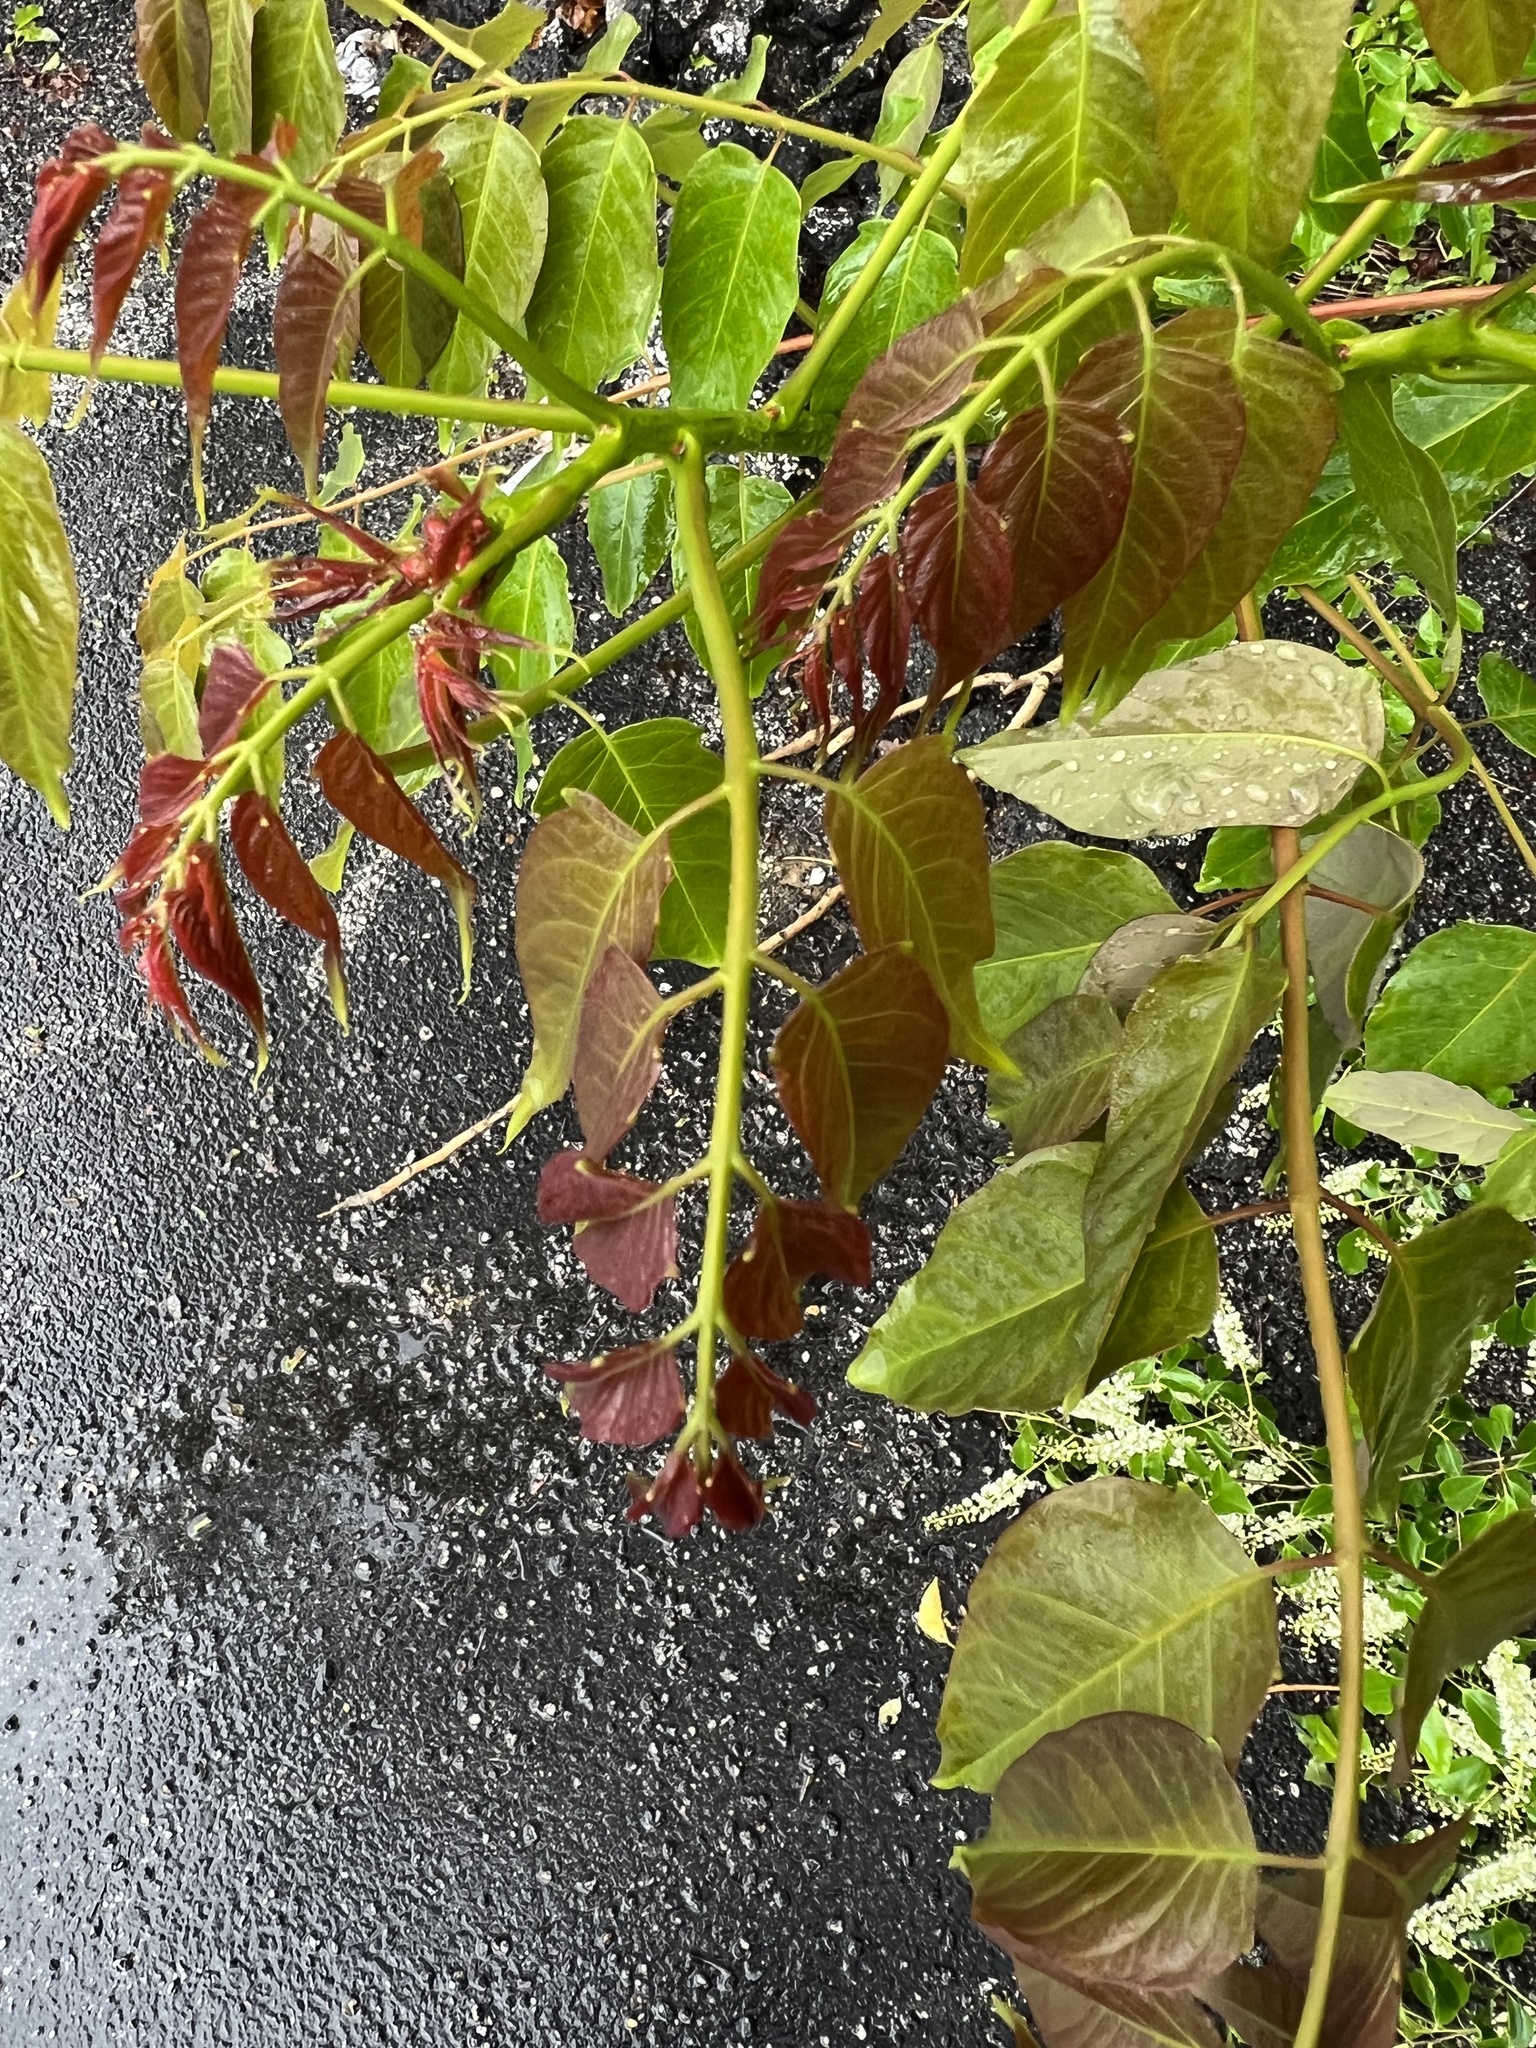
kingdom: Plantae
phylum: Tracheophyta
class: Magnoliopsida
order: Sapindales
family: Simaroubaceae
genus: Ailanthus
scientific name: Ailanthus altissima
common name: Tree-of-heaven
